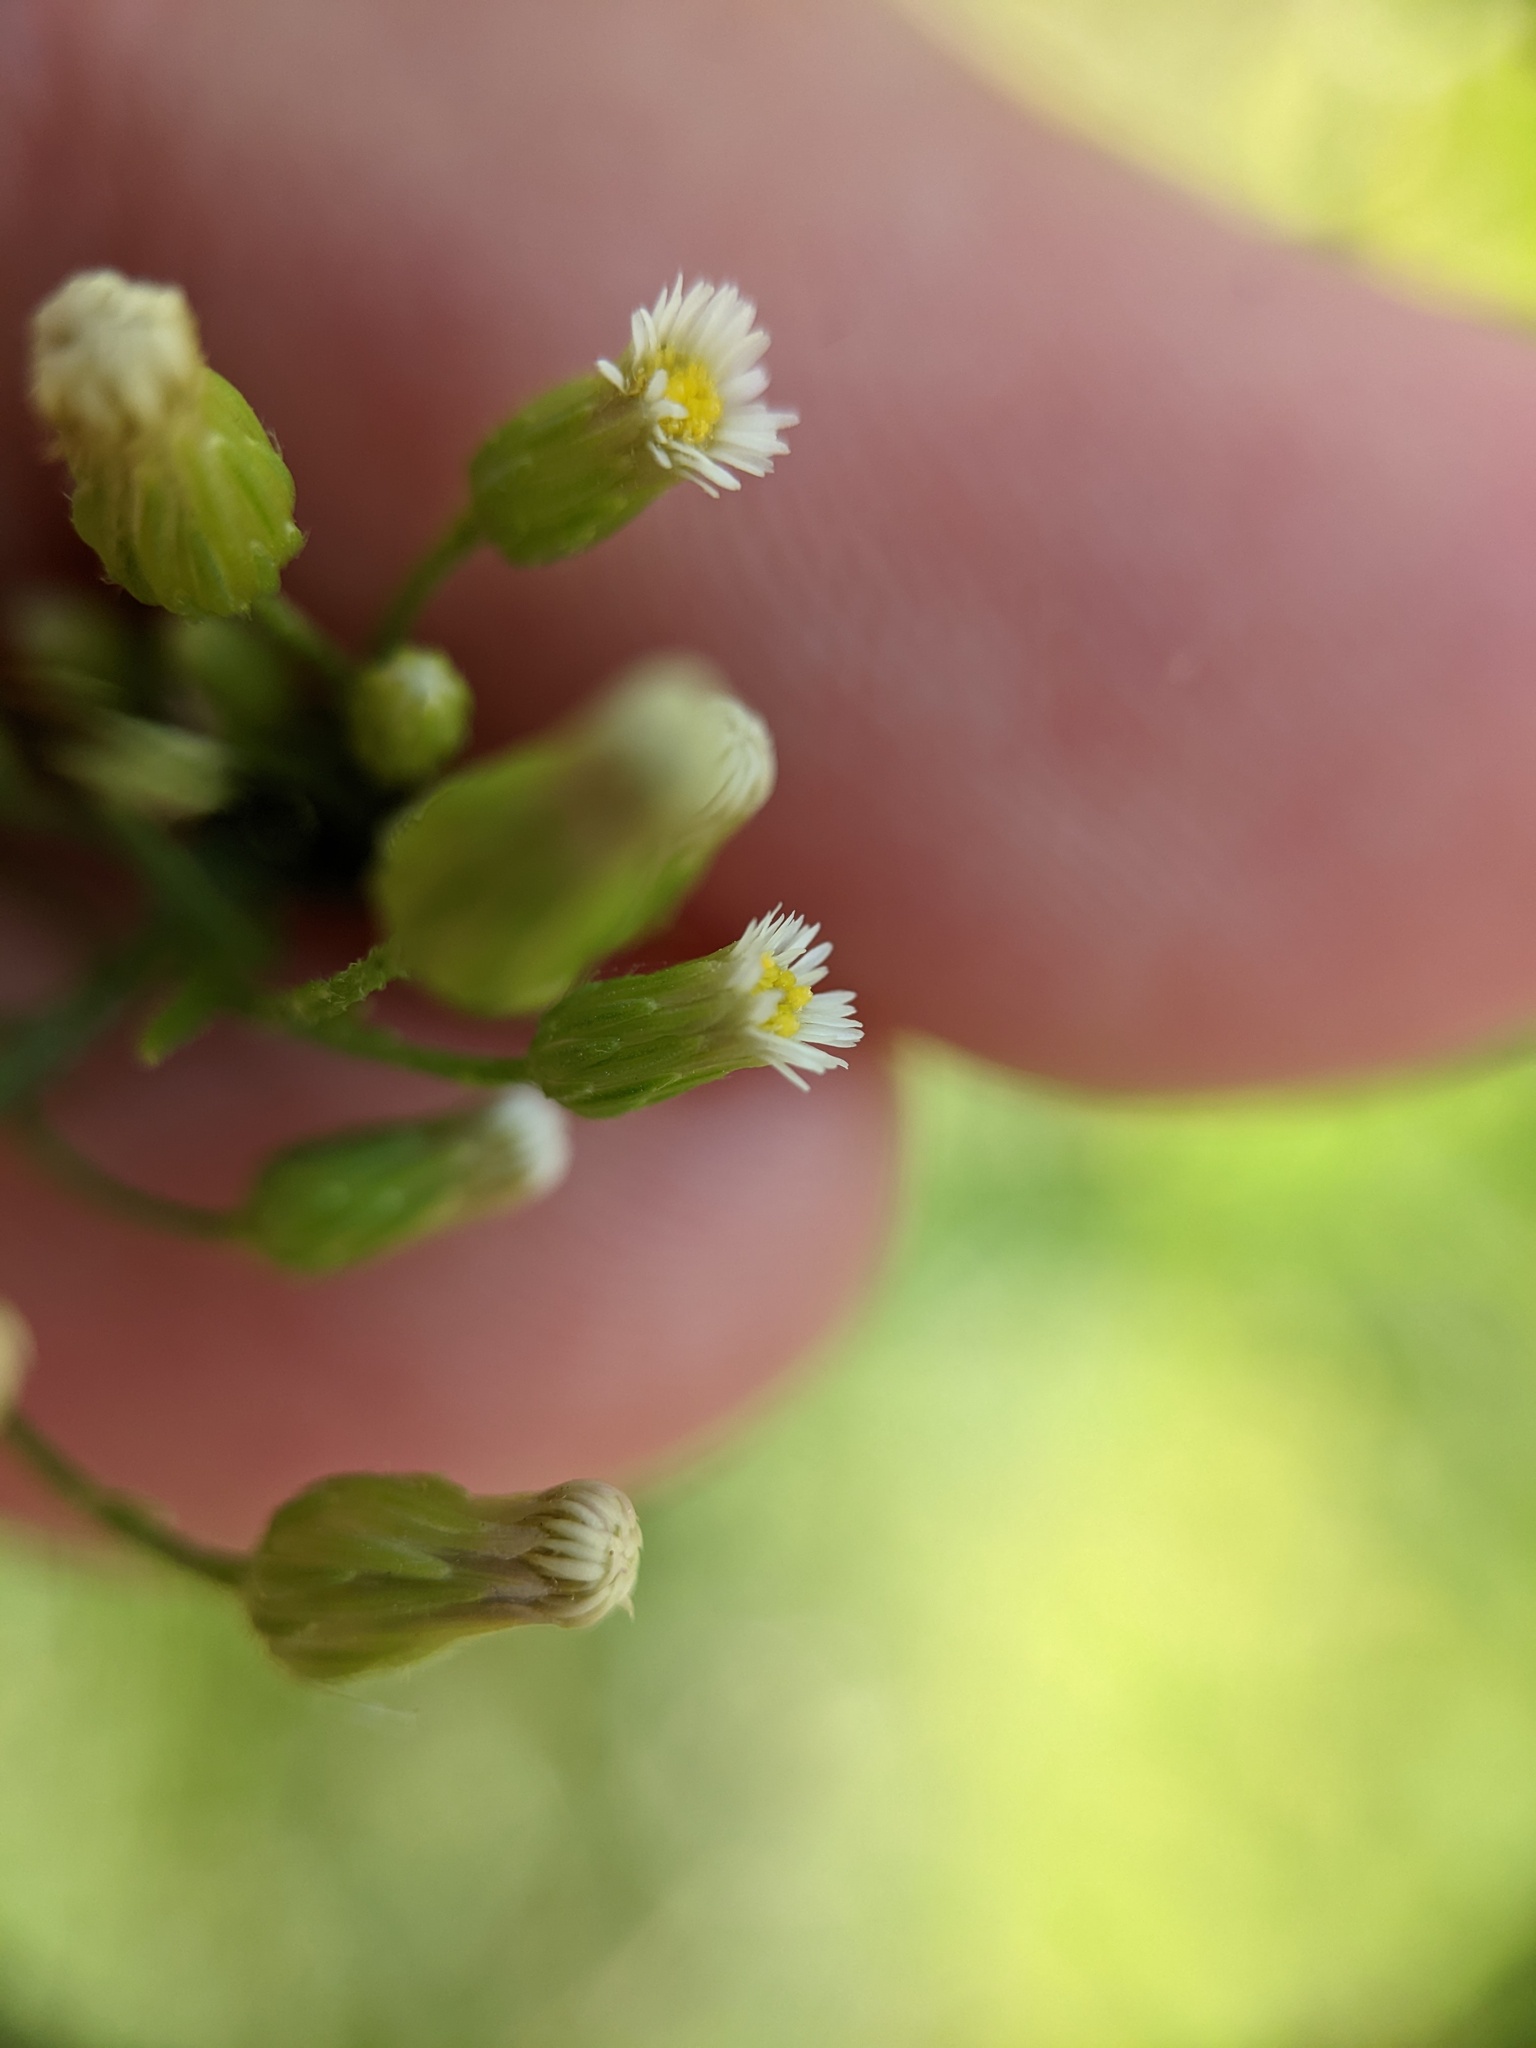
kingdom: Plantae
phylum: Tracheophyta
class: Magnoliopsida
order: Asterales
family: Asteraceae
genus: Erigeron
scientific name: Erigeron canadensis
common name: Canadian fleabane
